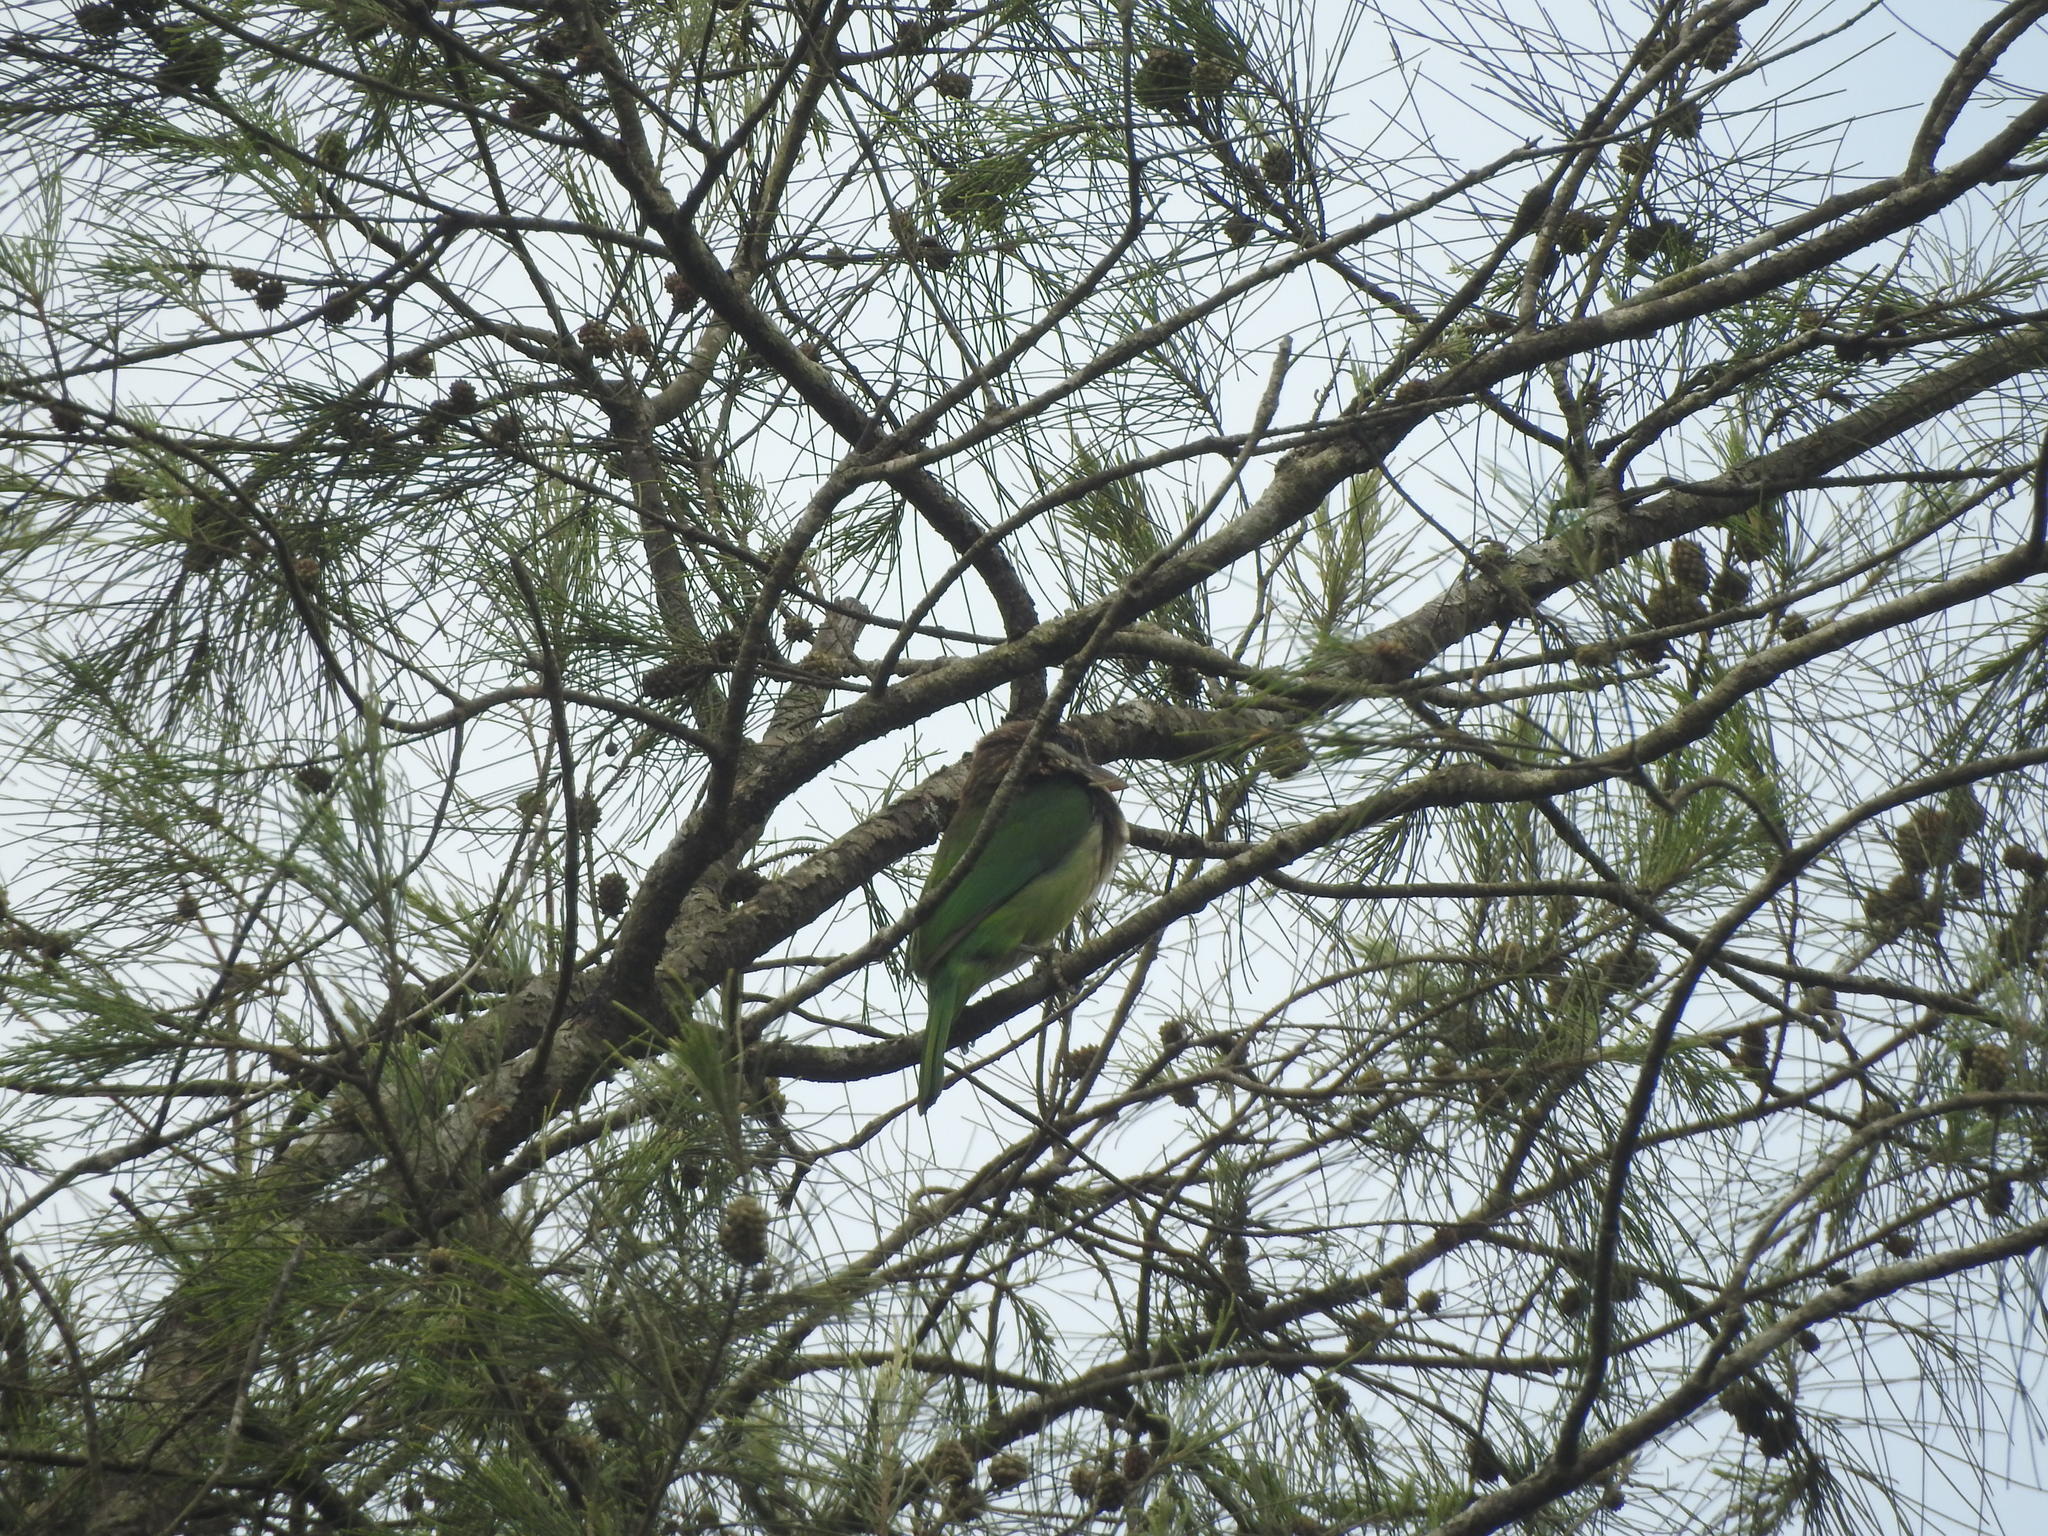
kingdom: Animalia
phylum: Chordata
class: Aves
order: Piciformes
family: Megalaimidae
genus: Psilopogon
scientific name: Psilopogon viridis
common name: White-cheeked barbet
